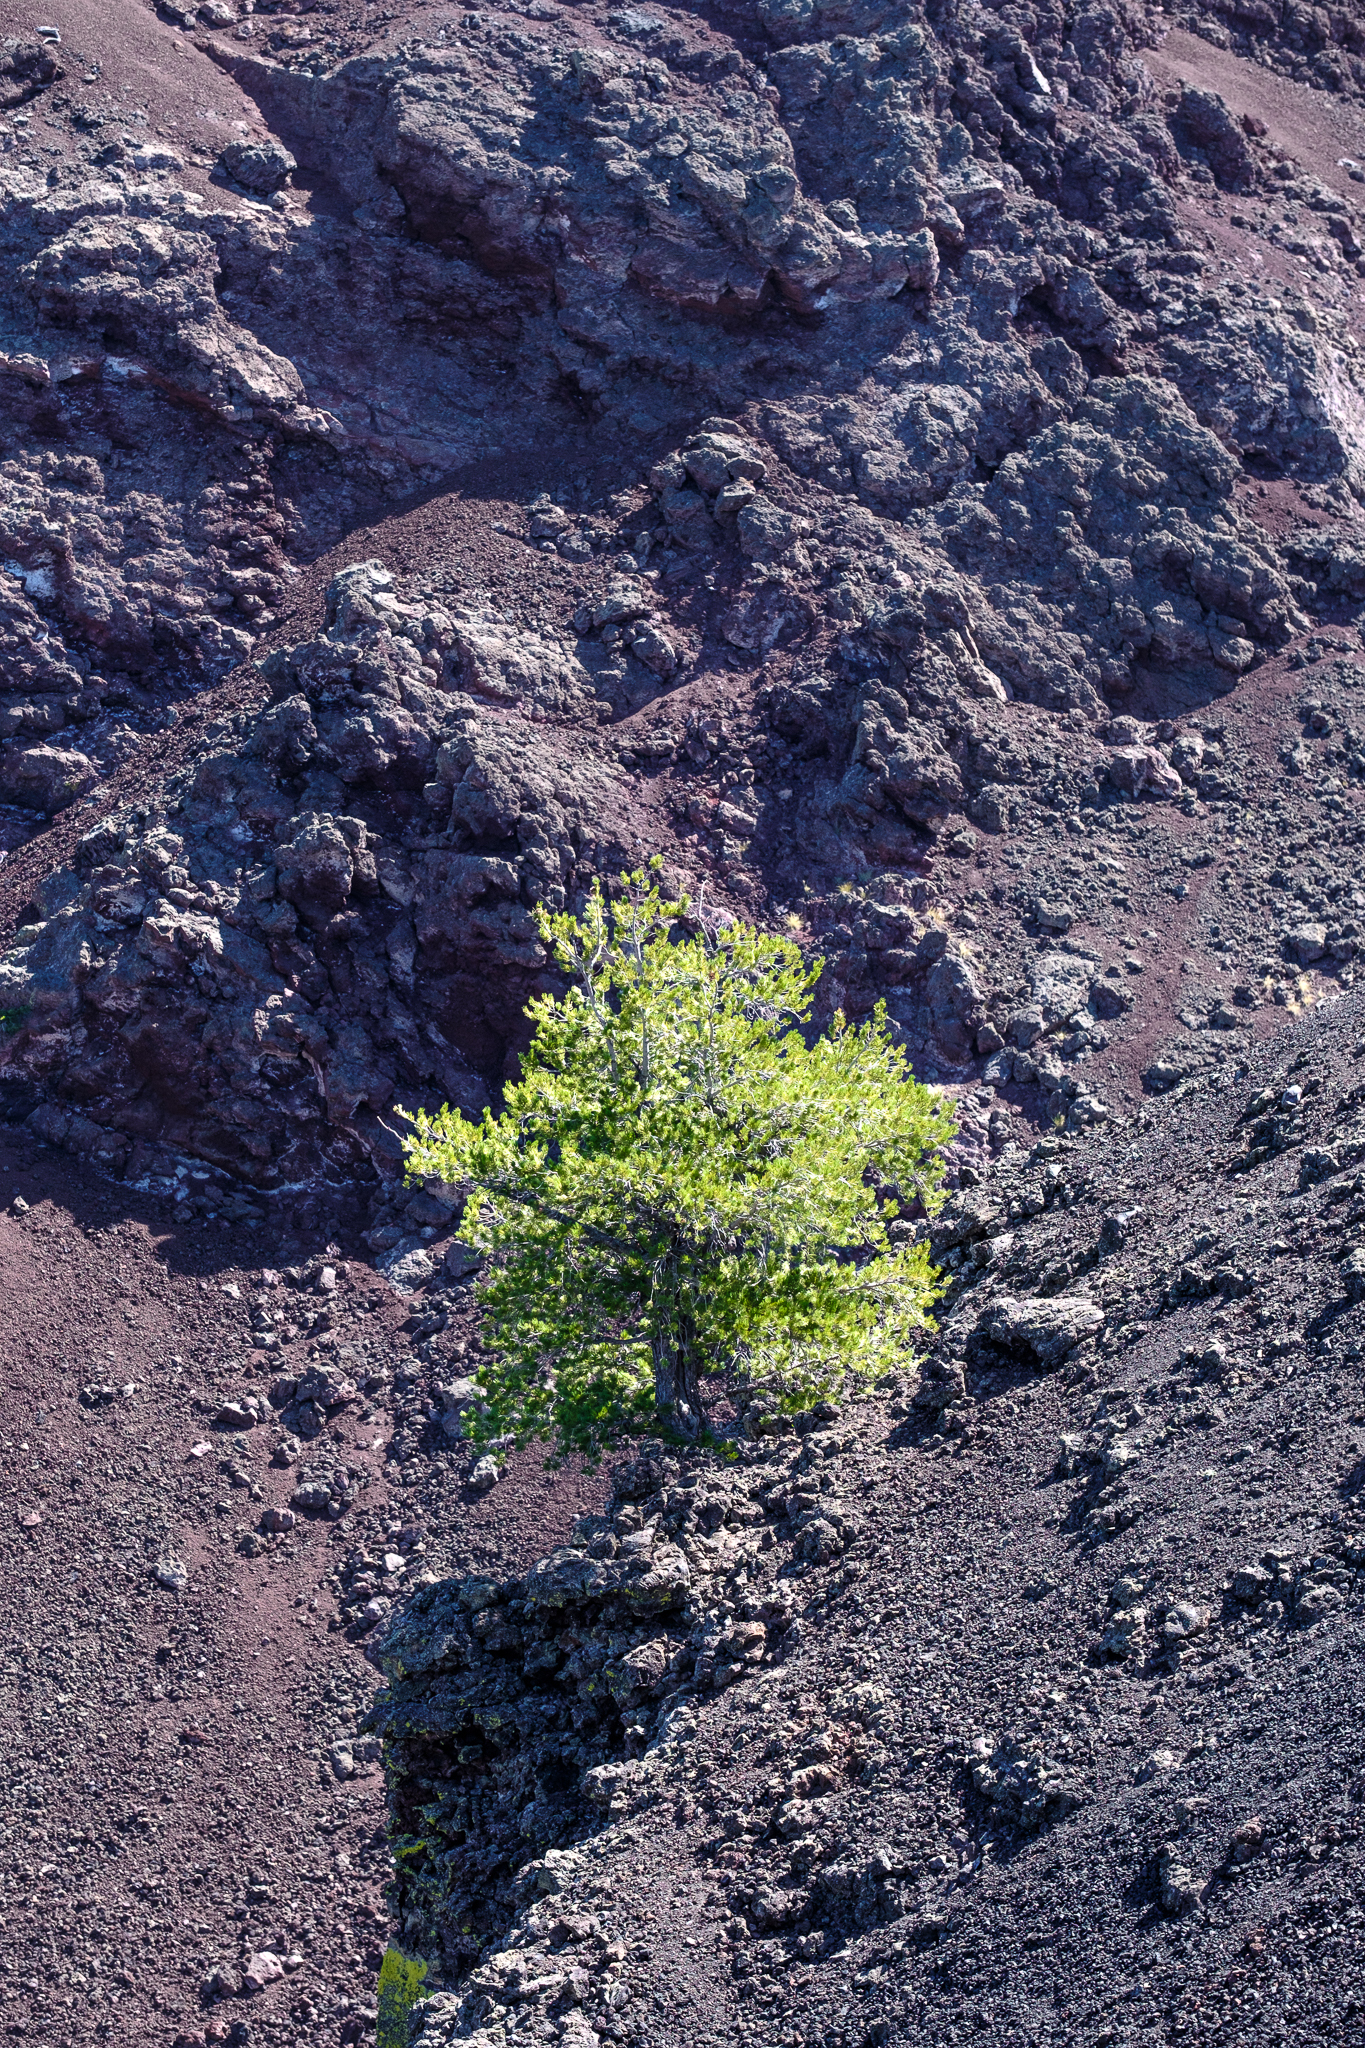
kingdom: Plantae
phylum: Tracheophyta
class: Pinopsida
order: Pinales
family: Pinaceae
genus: Pinus
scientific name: Pinus flexilis
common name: Limber pine
